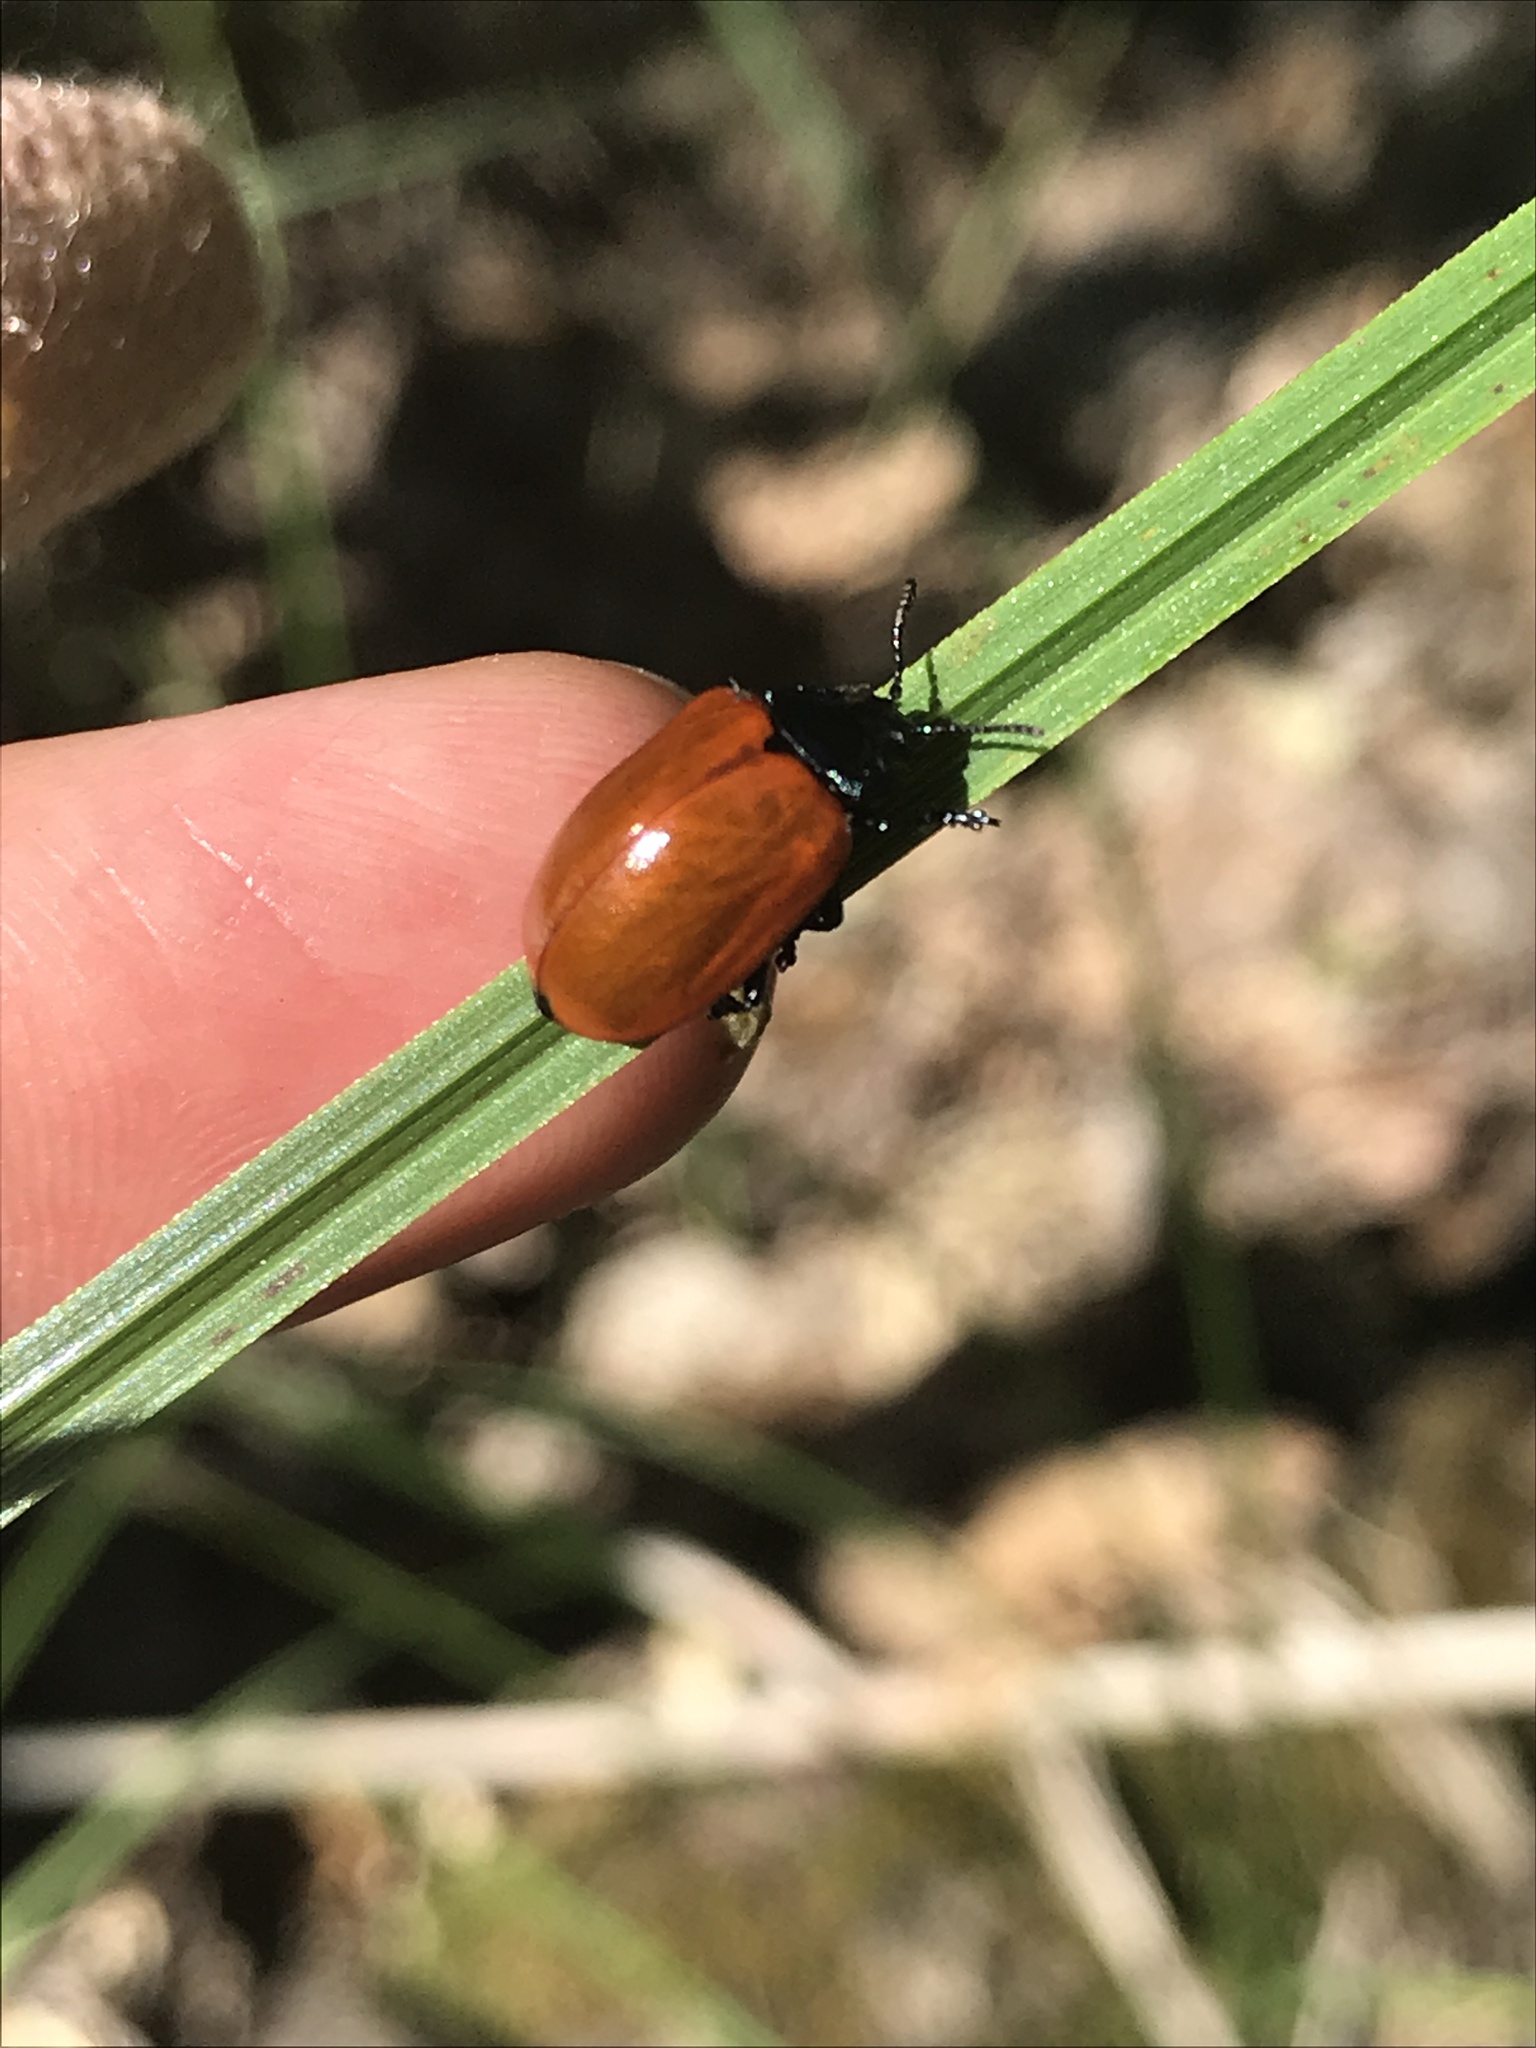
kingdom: Animalia
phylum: Arthropoda
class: Insecta
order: Coleoptera
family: Chrysomelidae
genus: Chrysomela
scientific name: Chrysomela populi
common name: Red poplar leaf beetle
